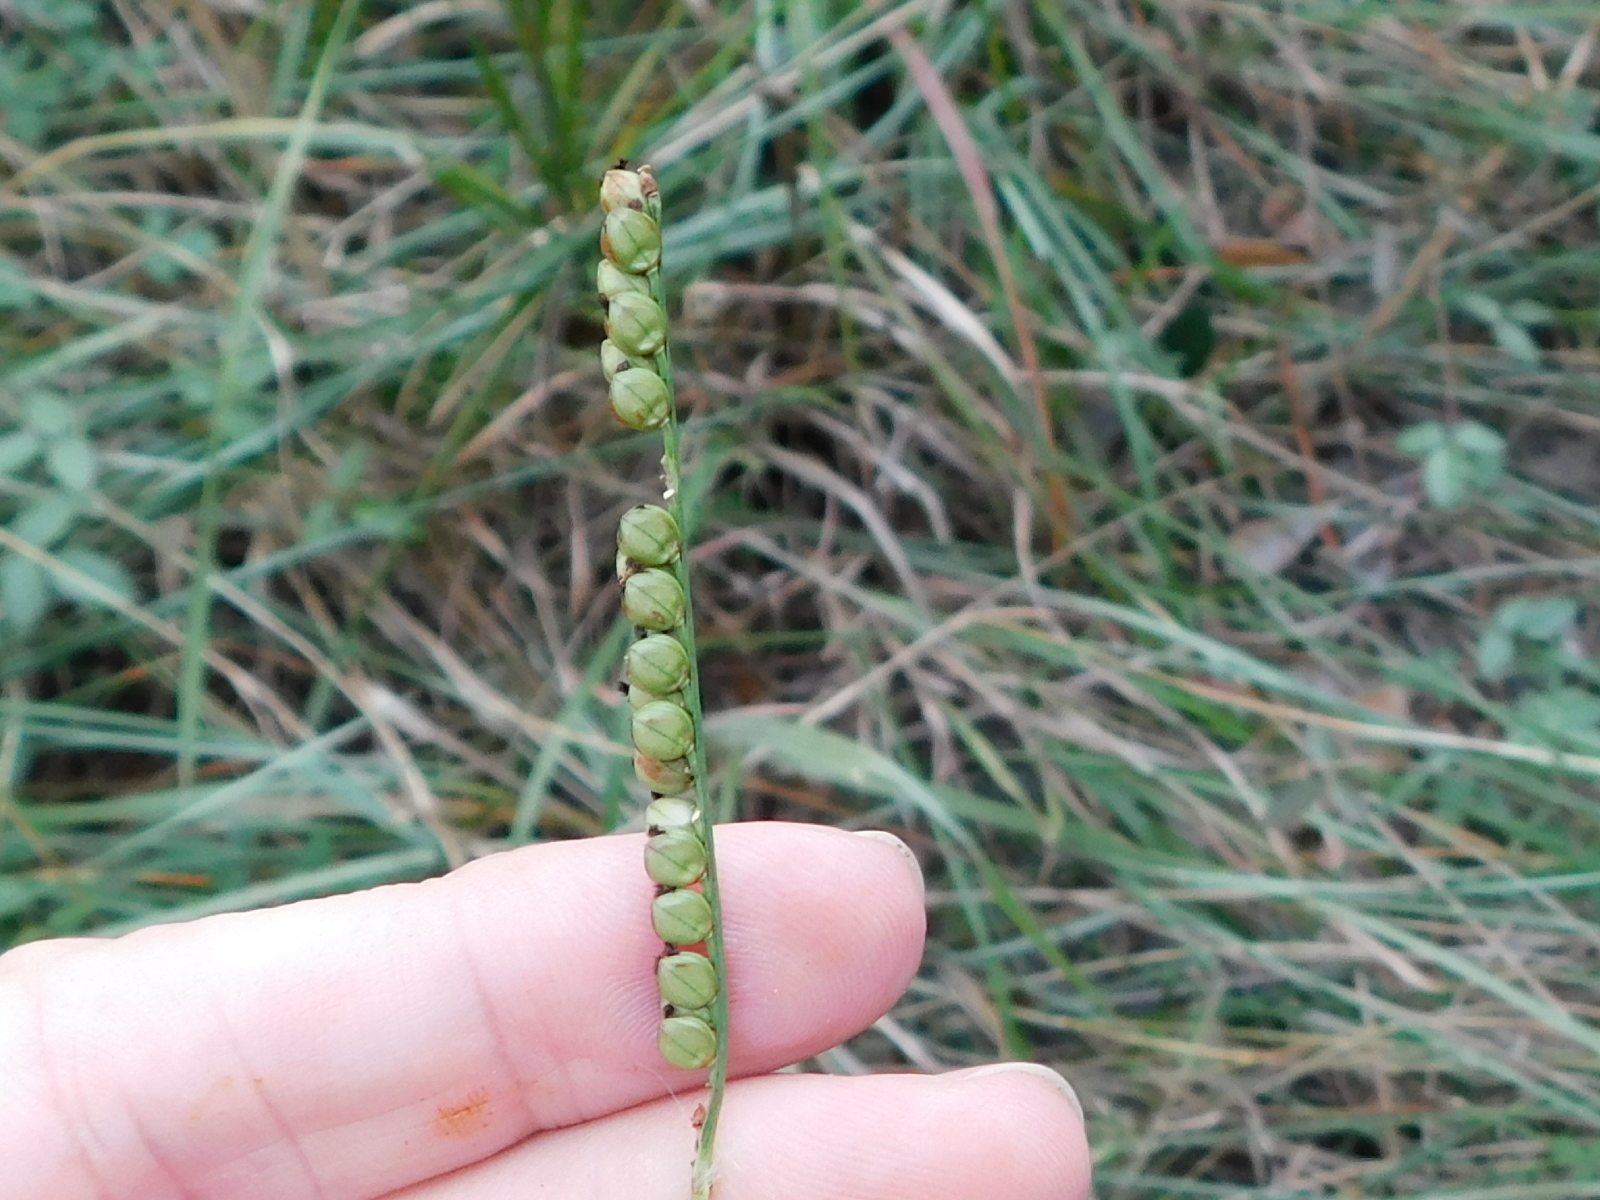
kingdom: Plantae
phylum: Tracheophyta
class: Liliopsida
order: Poales
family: Poaceae
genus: Paspalum
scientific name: Paspalum floridanum
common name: Florida paspalum
